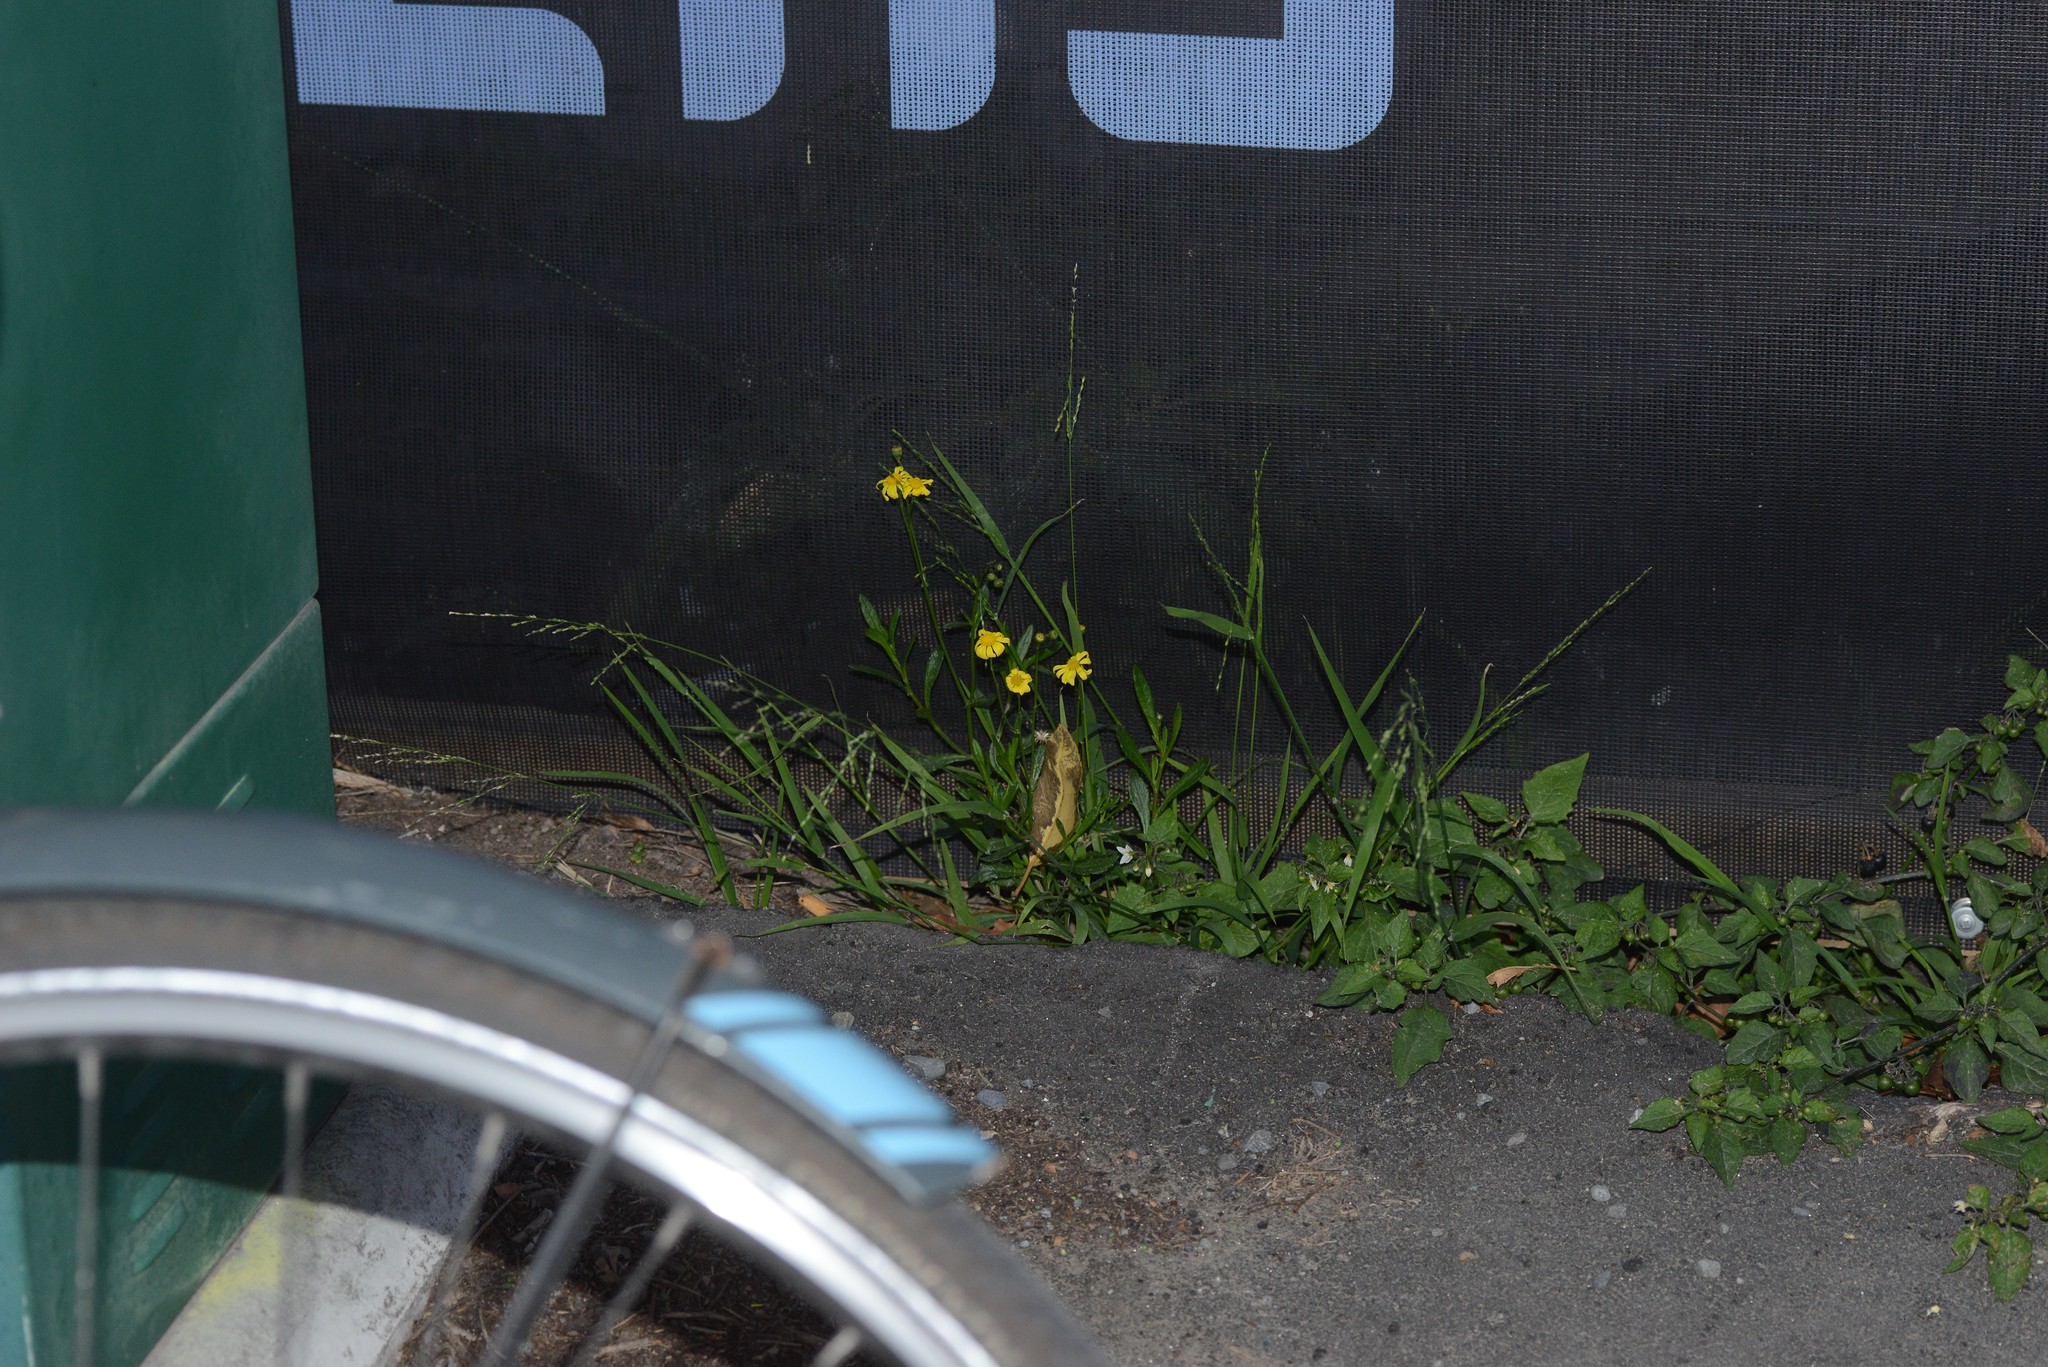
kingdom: Plantae
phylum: Tracheophyta
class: Magnoliopsida
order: Asterales
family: Asteraceae
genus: Senecio
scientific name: Senecio skirrhodon
